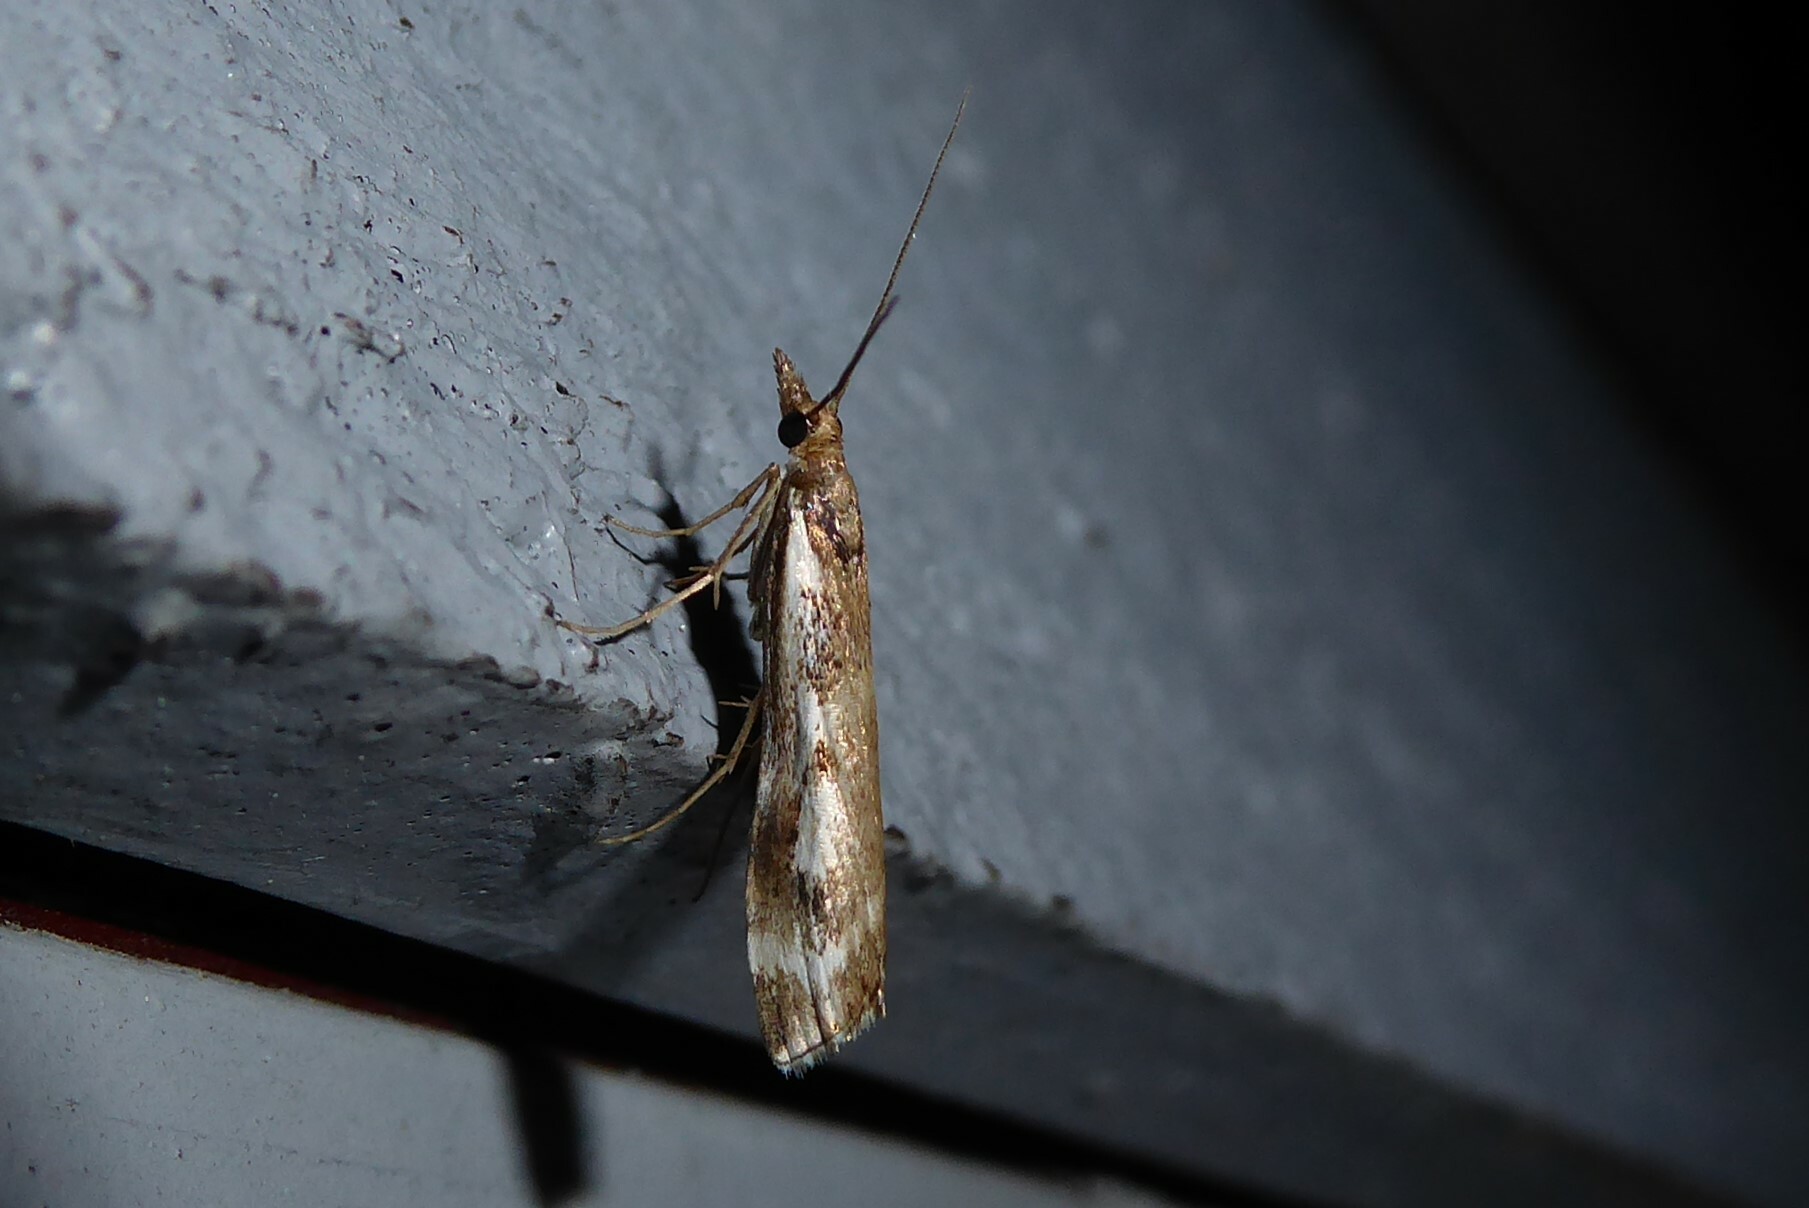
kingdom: Animalia
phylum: Arthropoda
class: Insecta
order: Lepidoptera
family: Crambidae
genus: Orocrambus
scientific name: Orocrambus vulgaris
